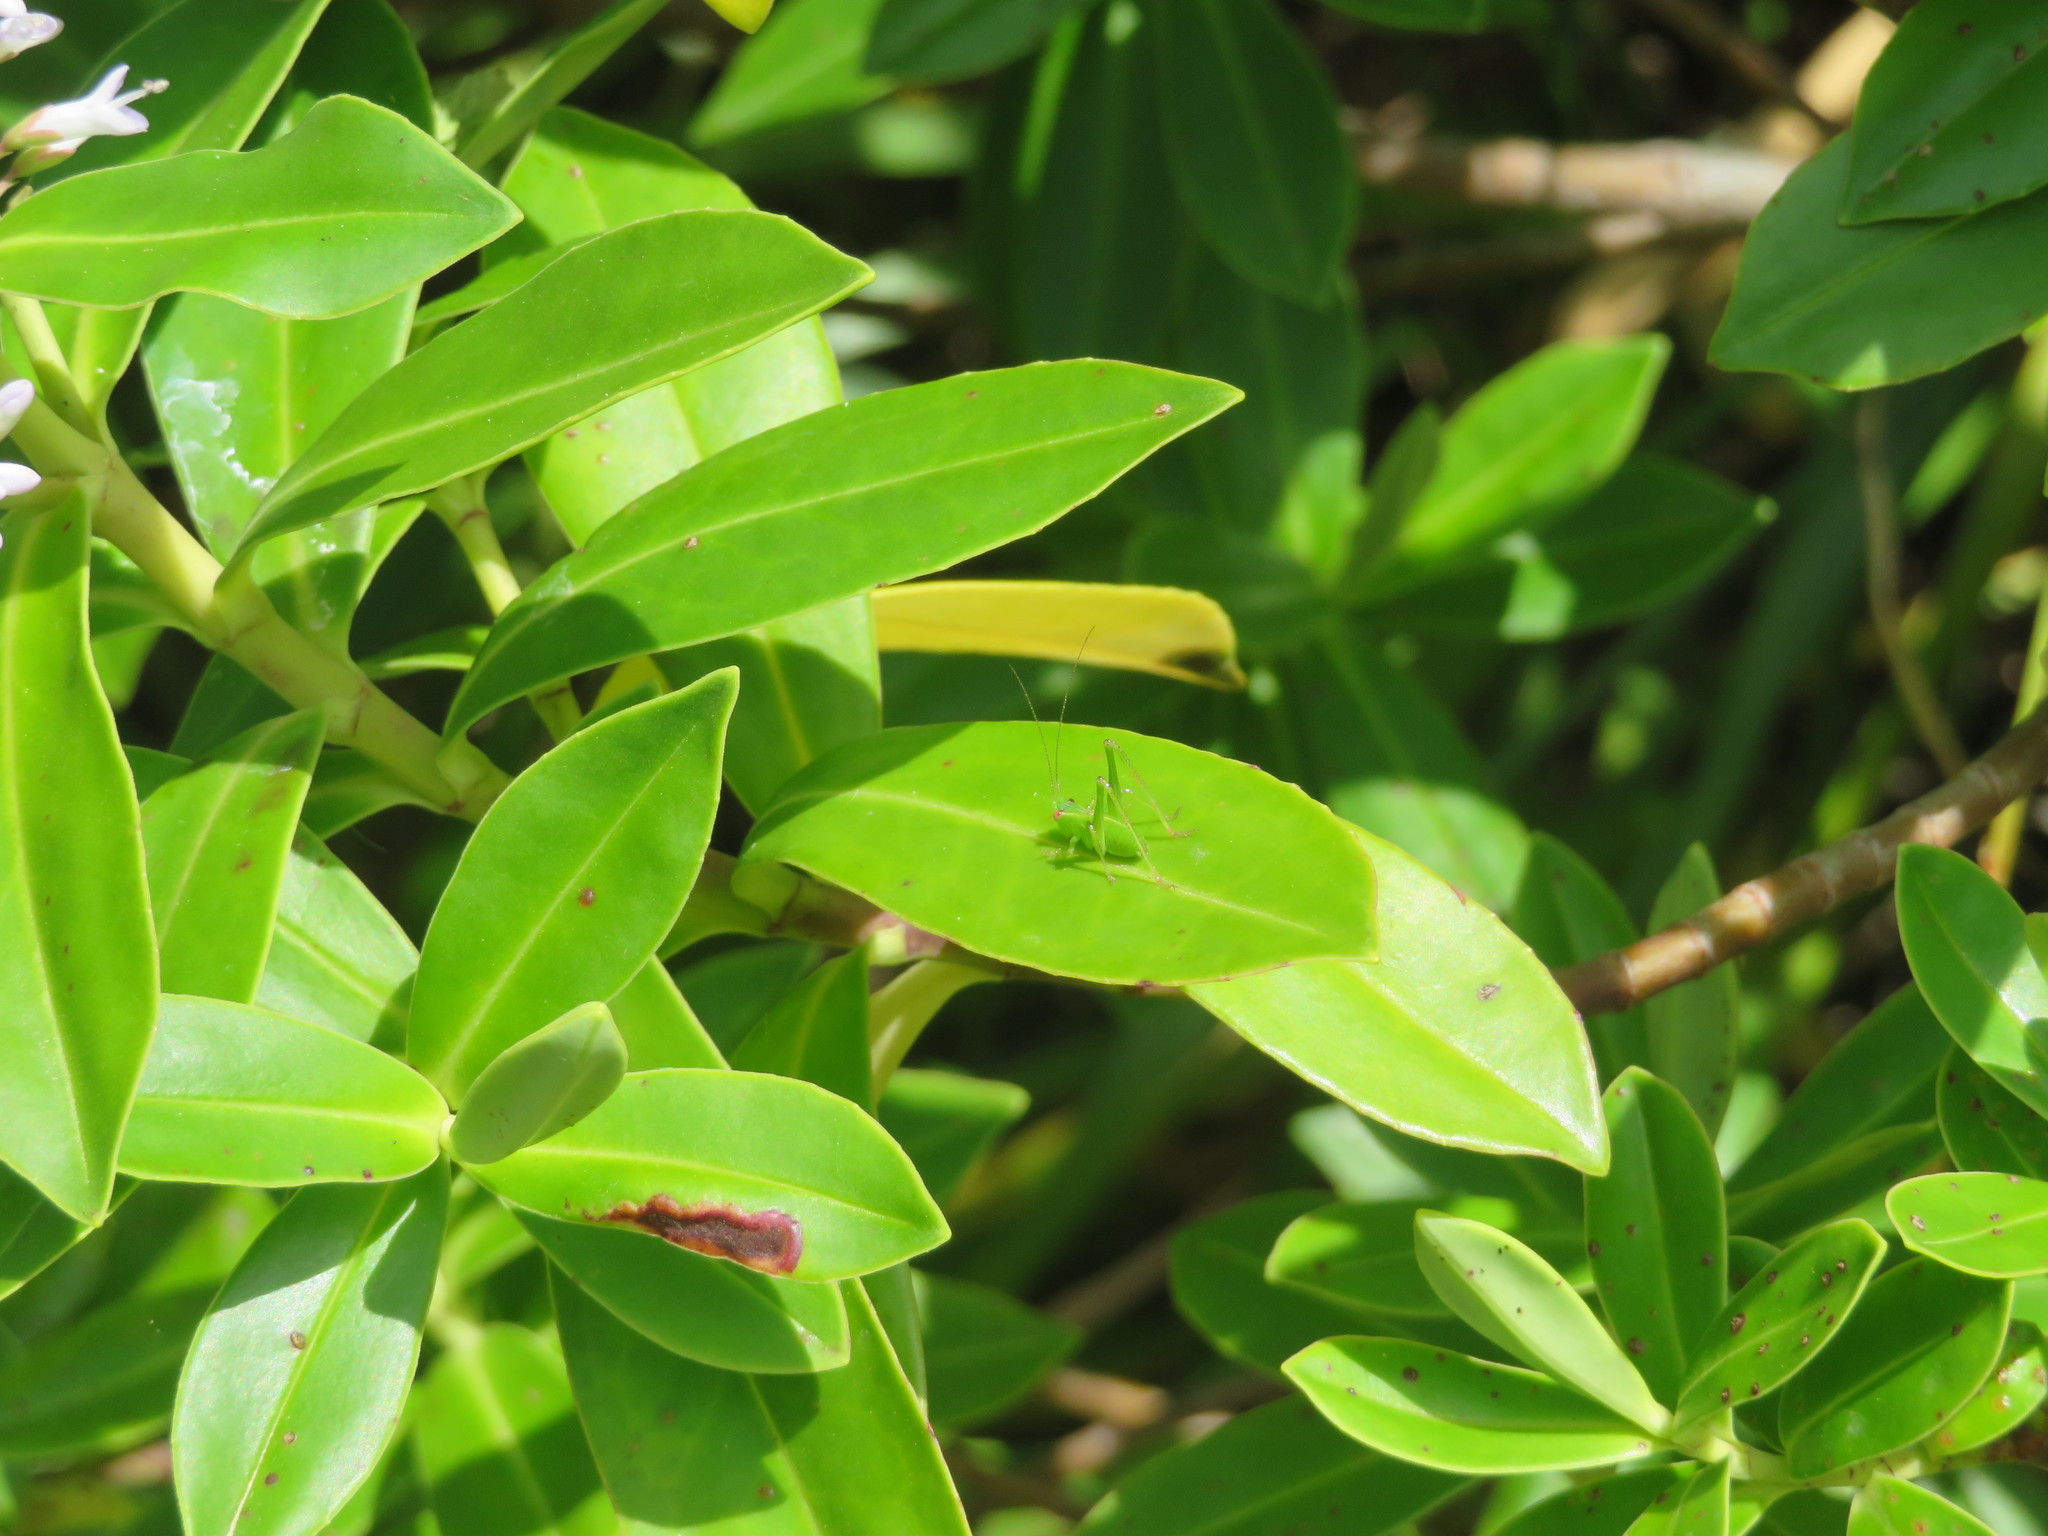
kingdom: Animalia
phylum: Arthropoda
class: Insecta
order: Orthoptera
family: Tettigoniidae
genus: Caedicia
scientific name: Caedicia simplex
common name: Common garden katydid
